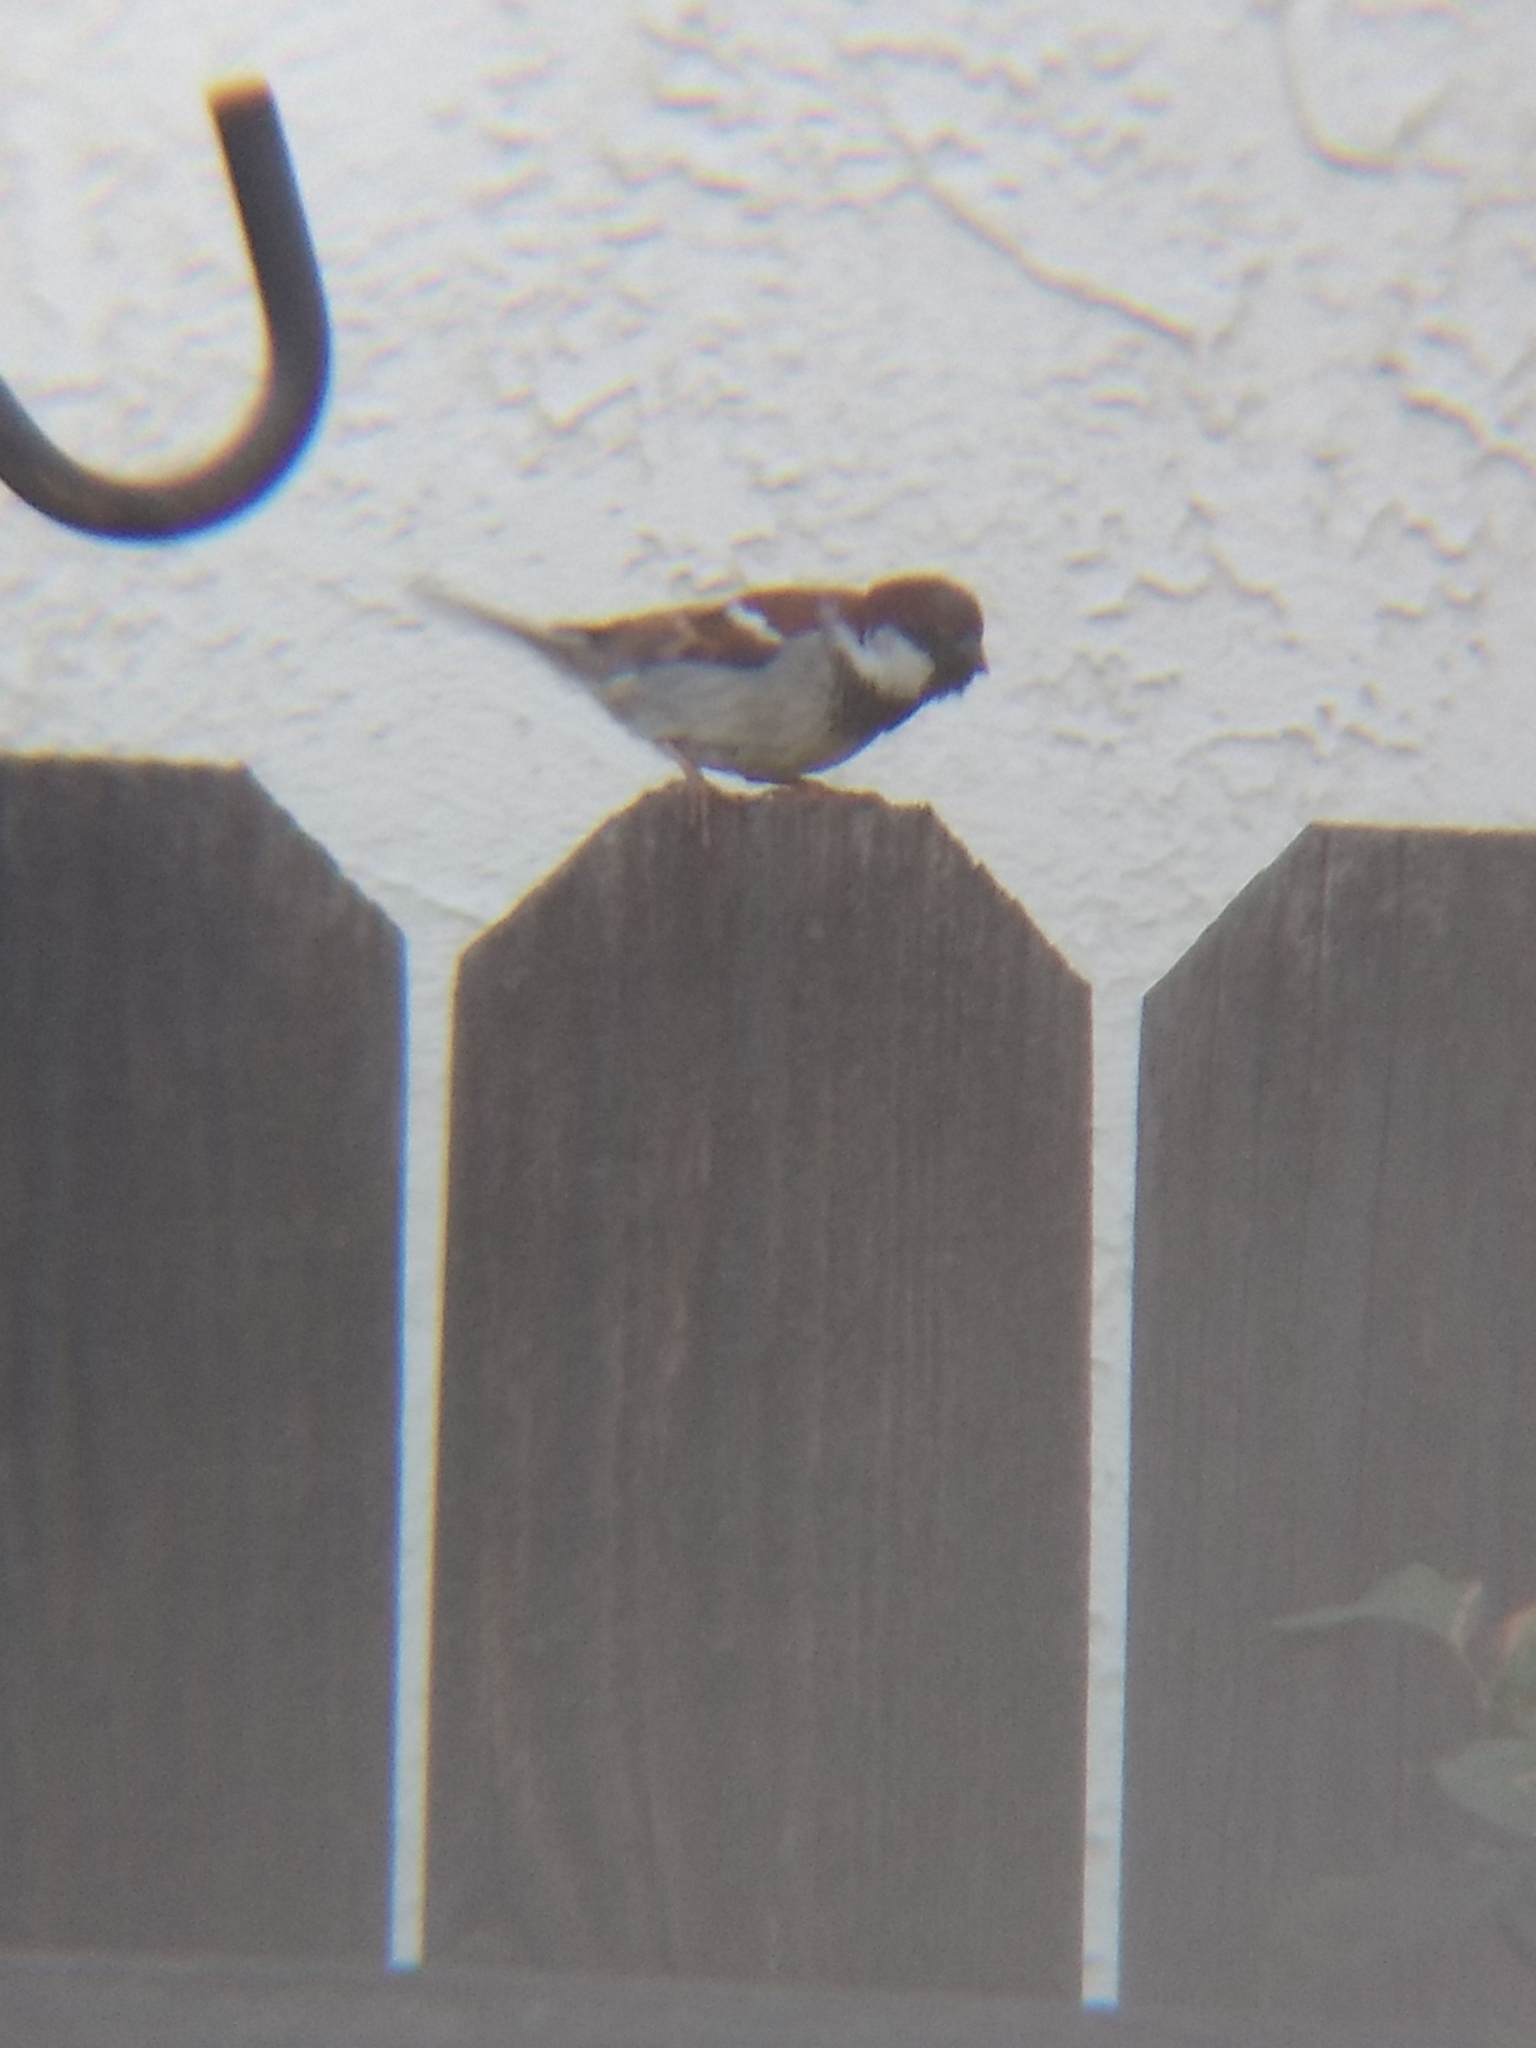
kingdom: Animalia
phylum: Chordata
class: Aves
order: Passeriformes
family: Passeridae
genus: Passer
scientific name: Passer domesticus
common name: House sparrow
